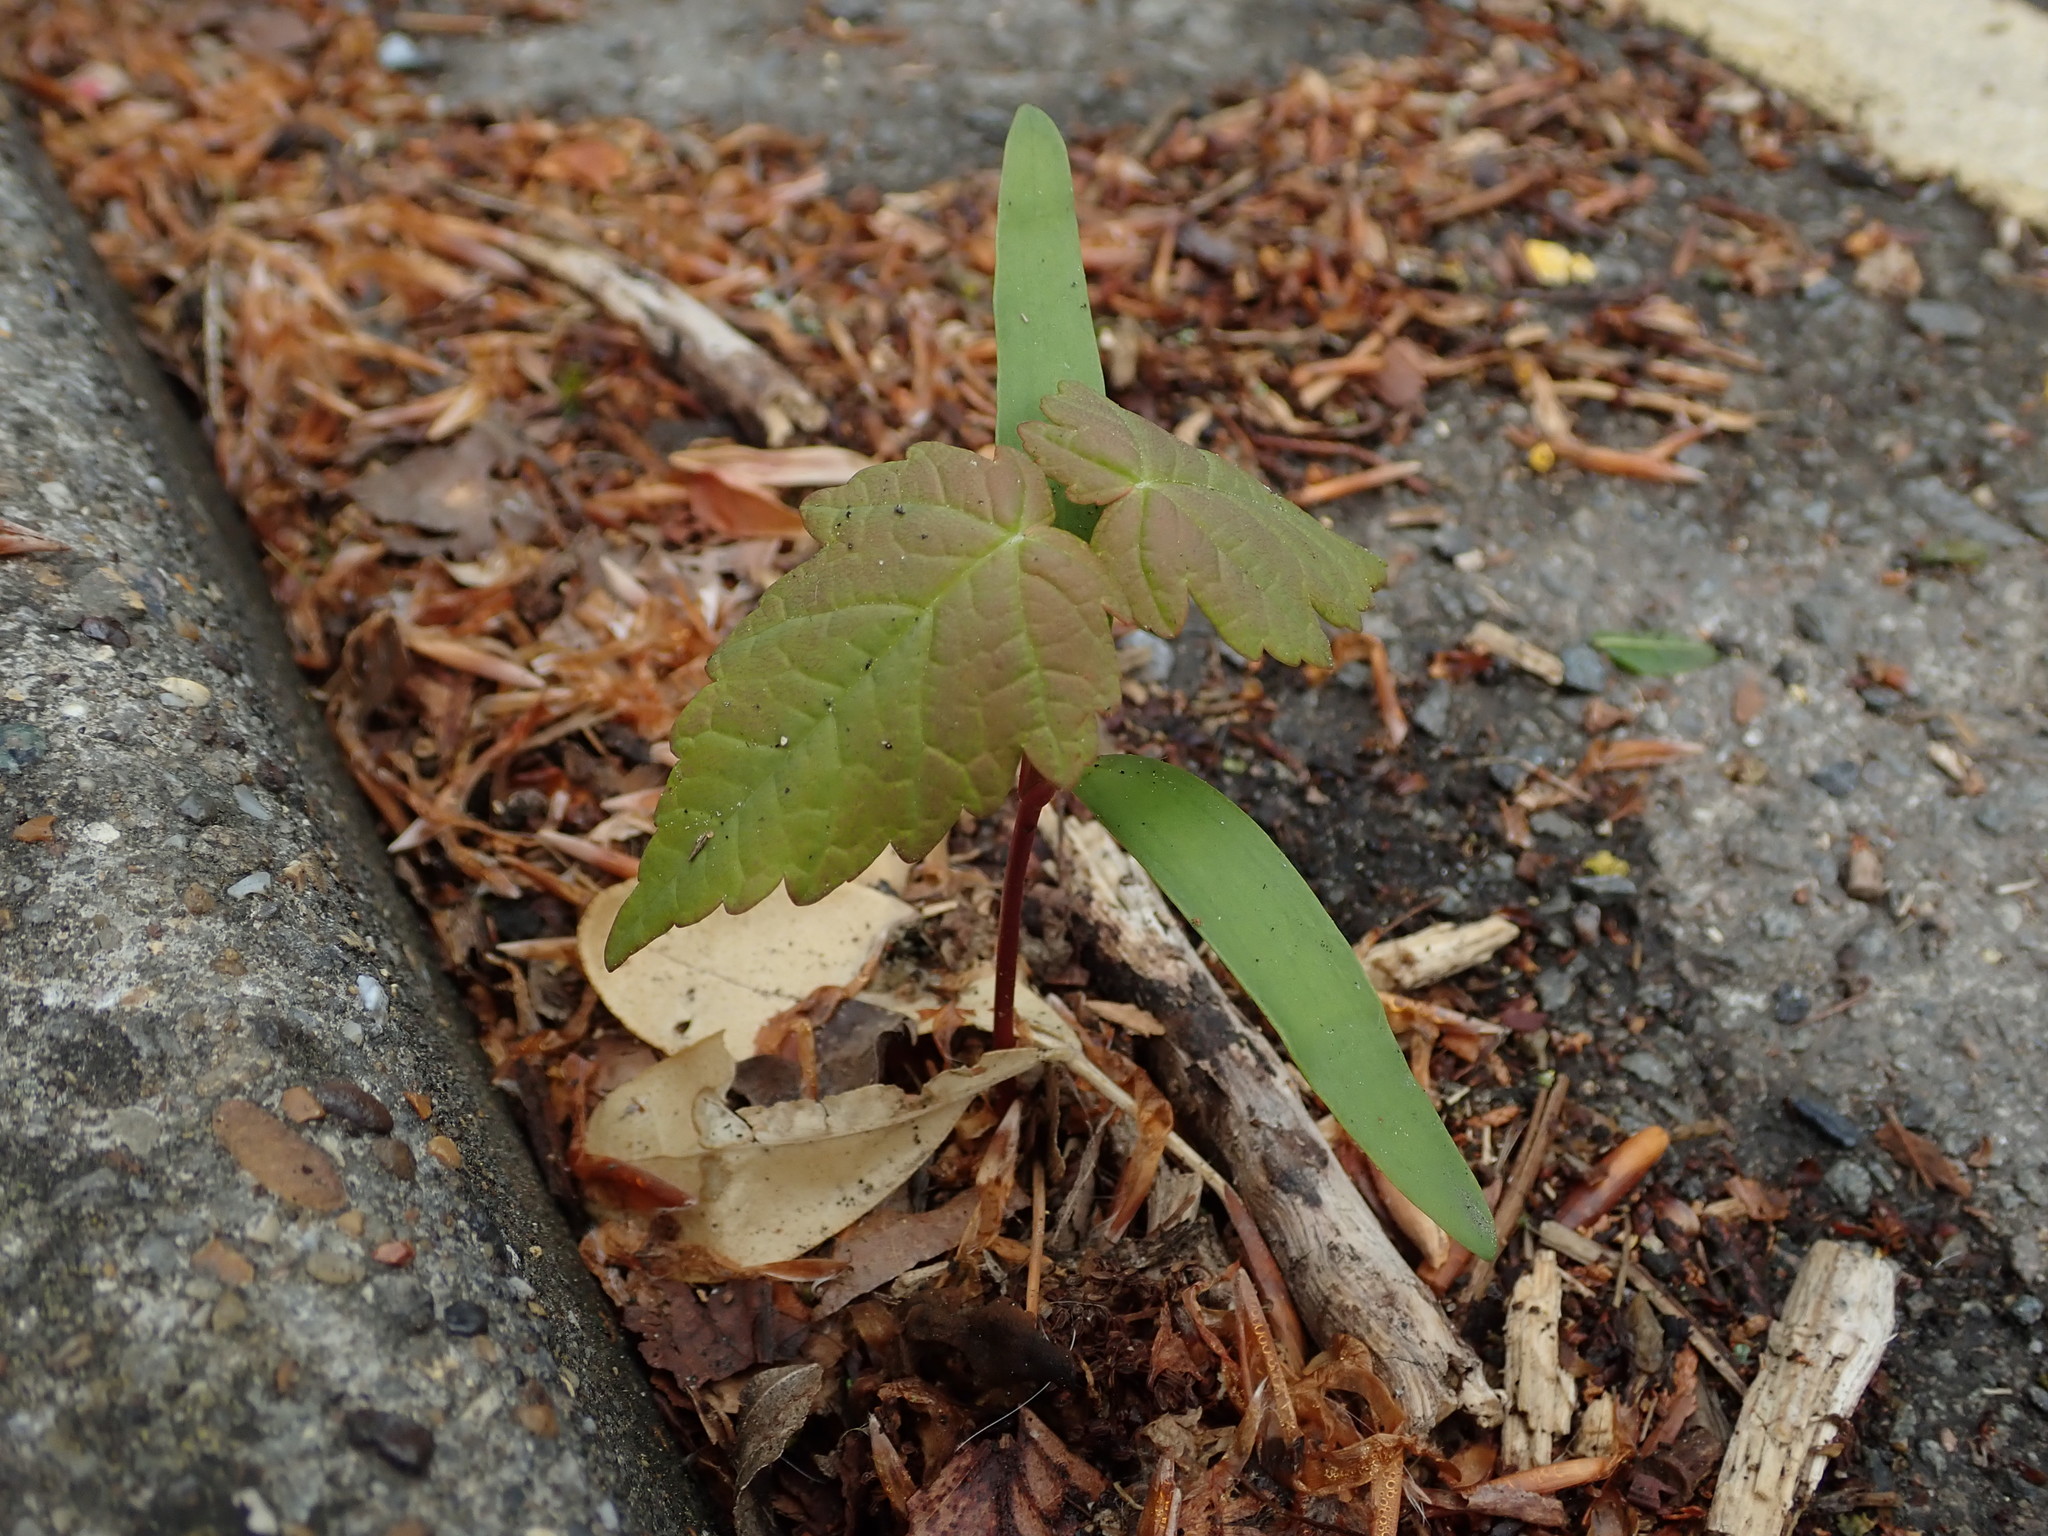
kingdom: Plantae
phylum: Tracheophyta
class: Magnoliopsida
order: Sapindales
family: Sapindaceae
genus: Acer
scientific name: Acer pseudoplatanus
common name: Sycamore
